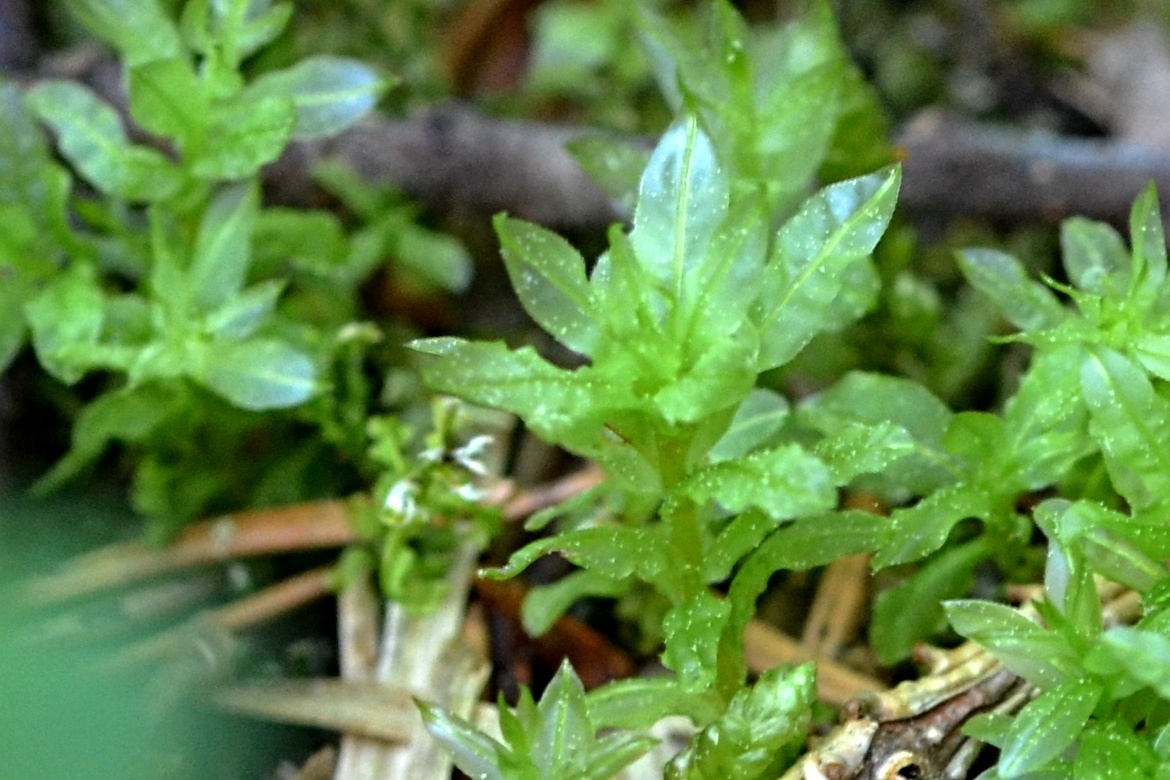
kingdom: Plantae
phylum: Bryophyta
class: Bryopsida
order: Bryales
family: Mniaceae
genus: Plagiomnium
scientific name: Plagiomnium undulatum
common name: Hart's-tongue thyme-moss
